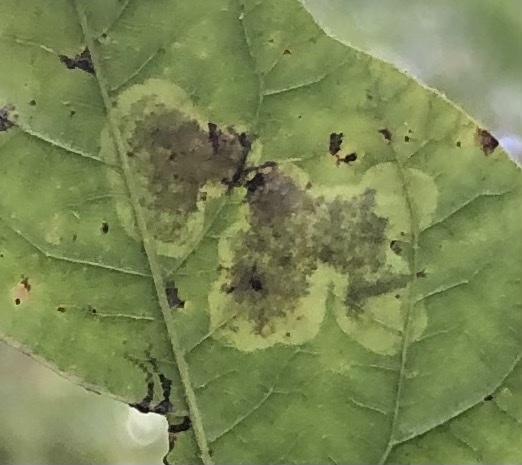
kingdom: Animalia
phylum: Arthropoda
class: Insecta
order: Lepidoptera
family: Gracillariidae
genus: Cameraria
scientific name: Cameraria guttifinitella
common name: Poison ivy leaf-miner moth
